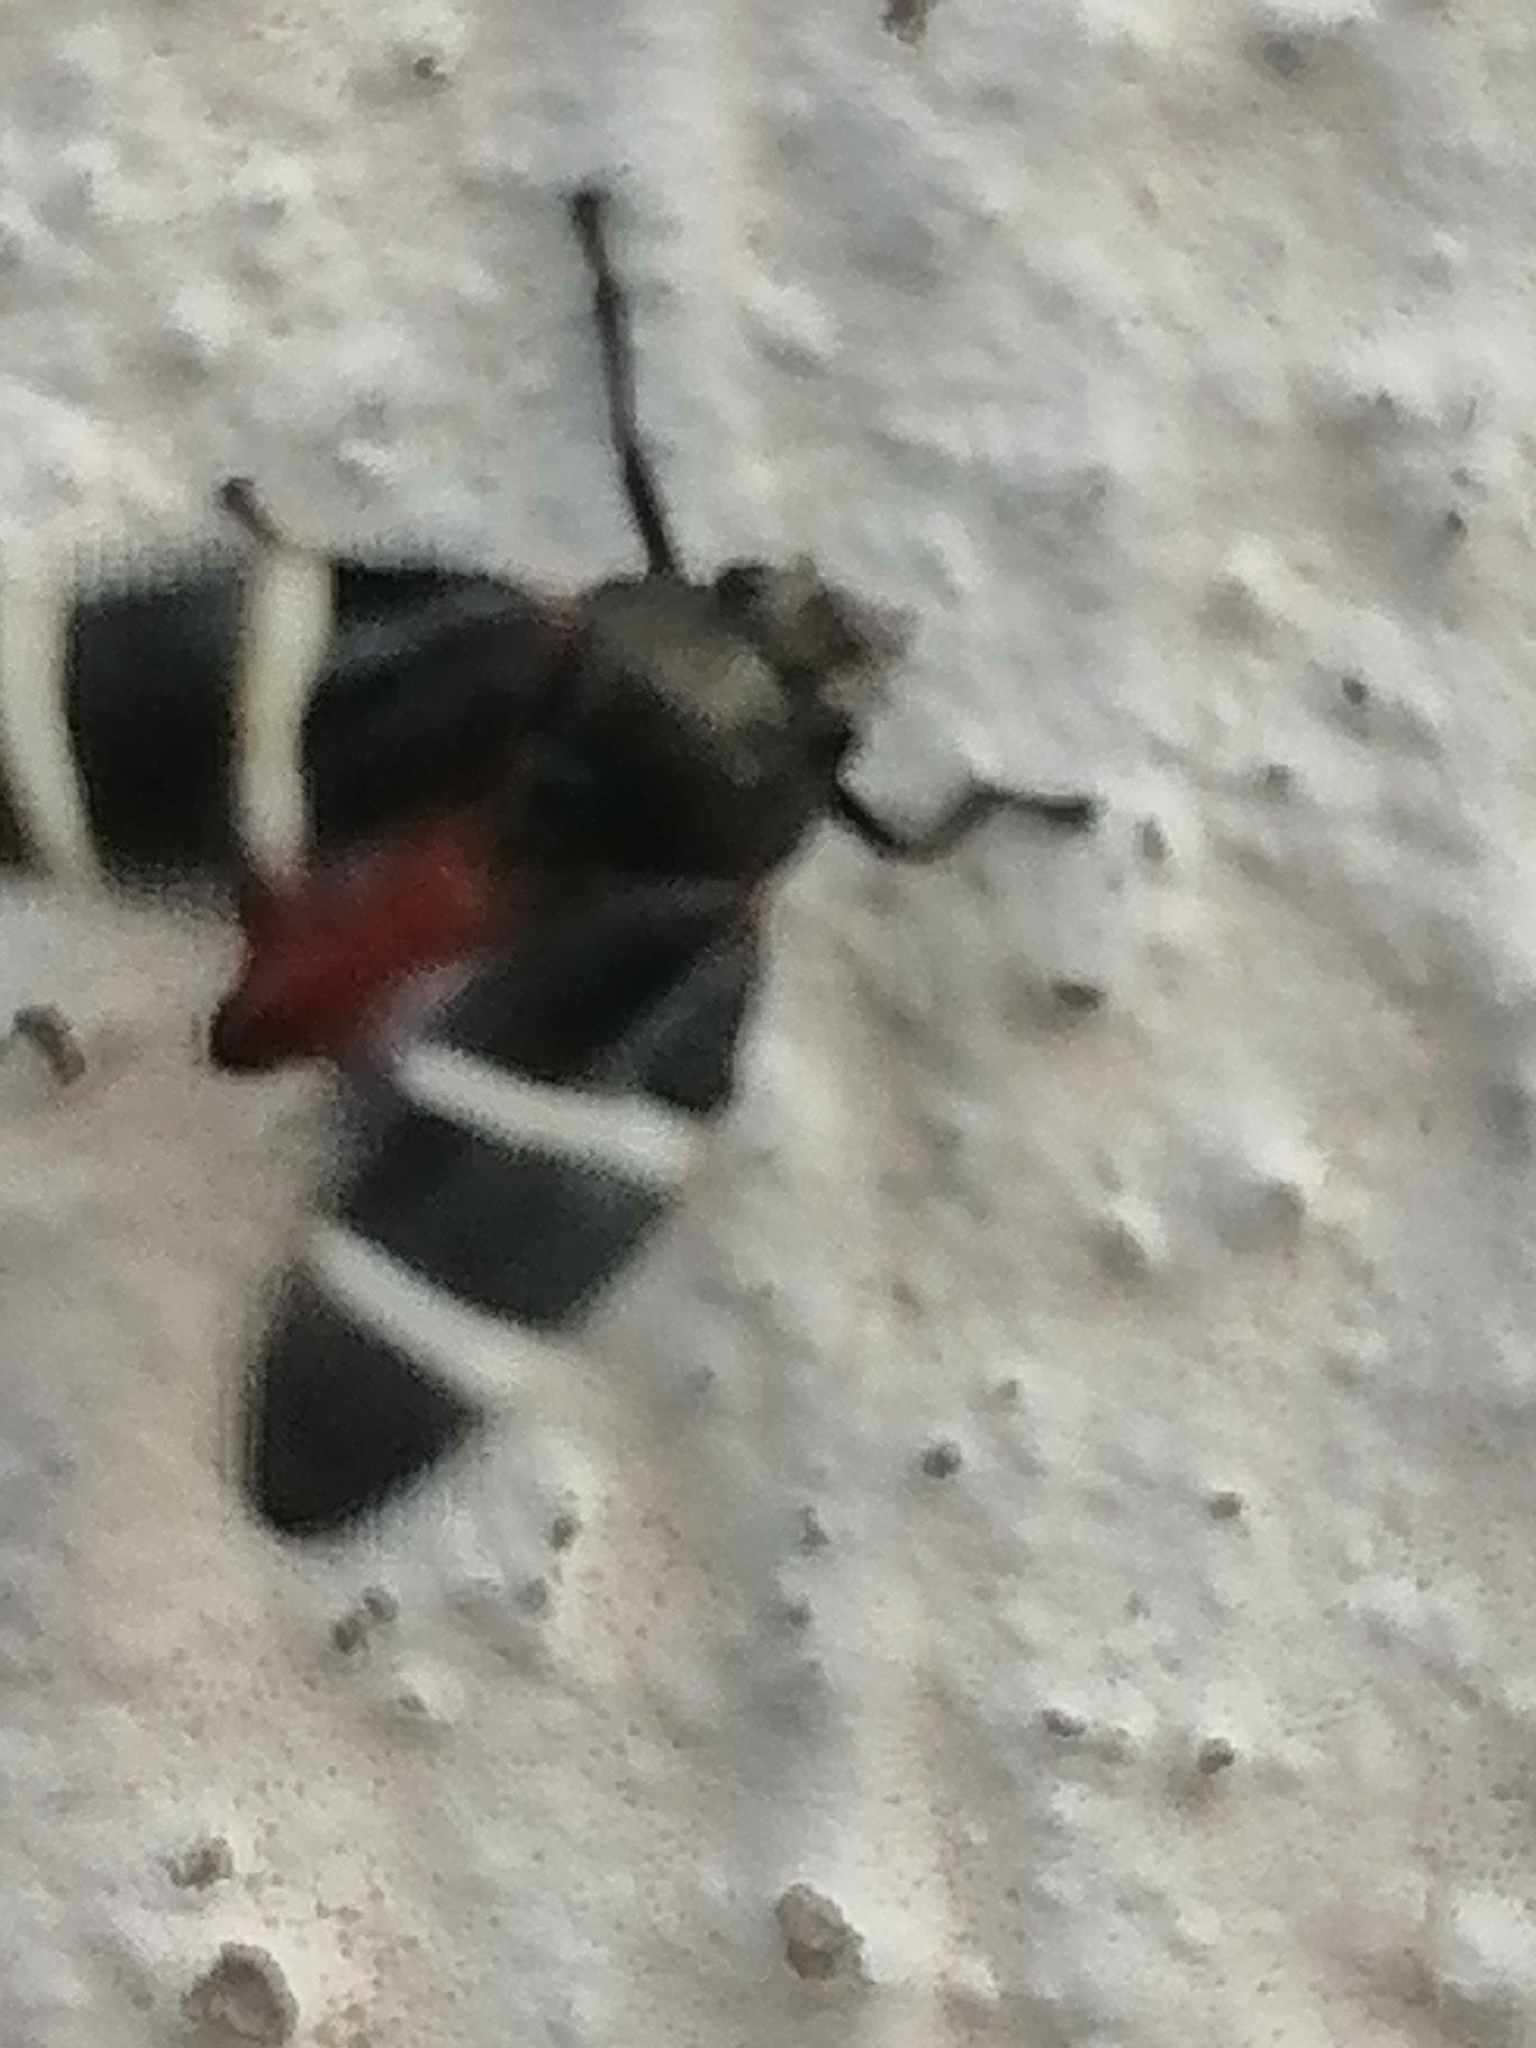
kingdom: Animalia
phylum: Arthropoda
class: Insecta
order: Hemiptera
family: Cercopidae
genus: Aeneolamia
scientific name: Aeneolamia albofasciata
